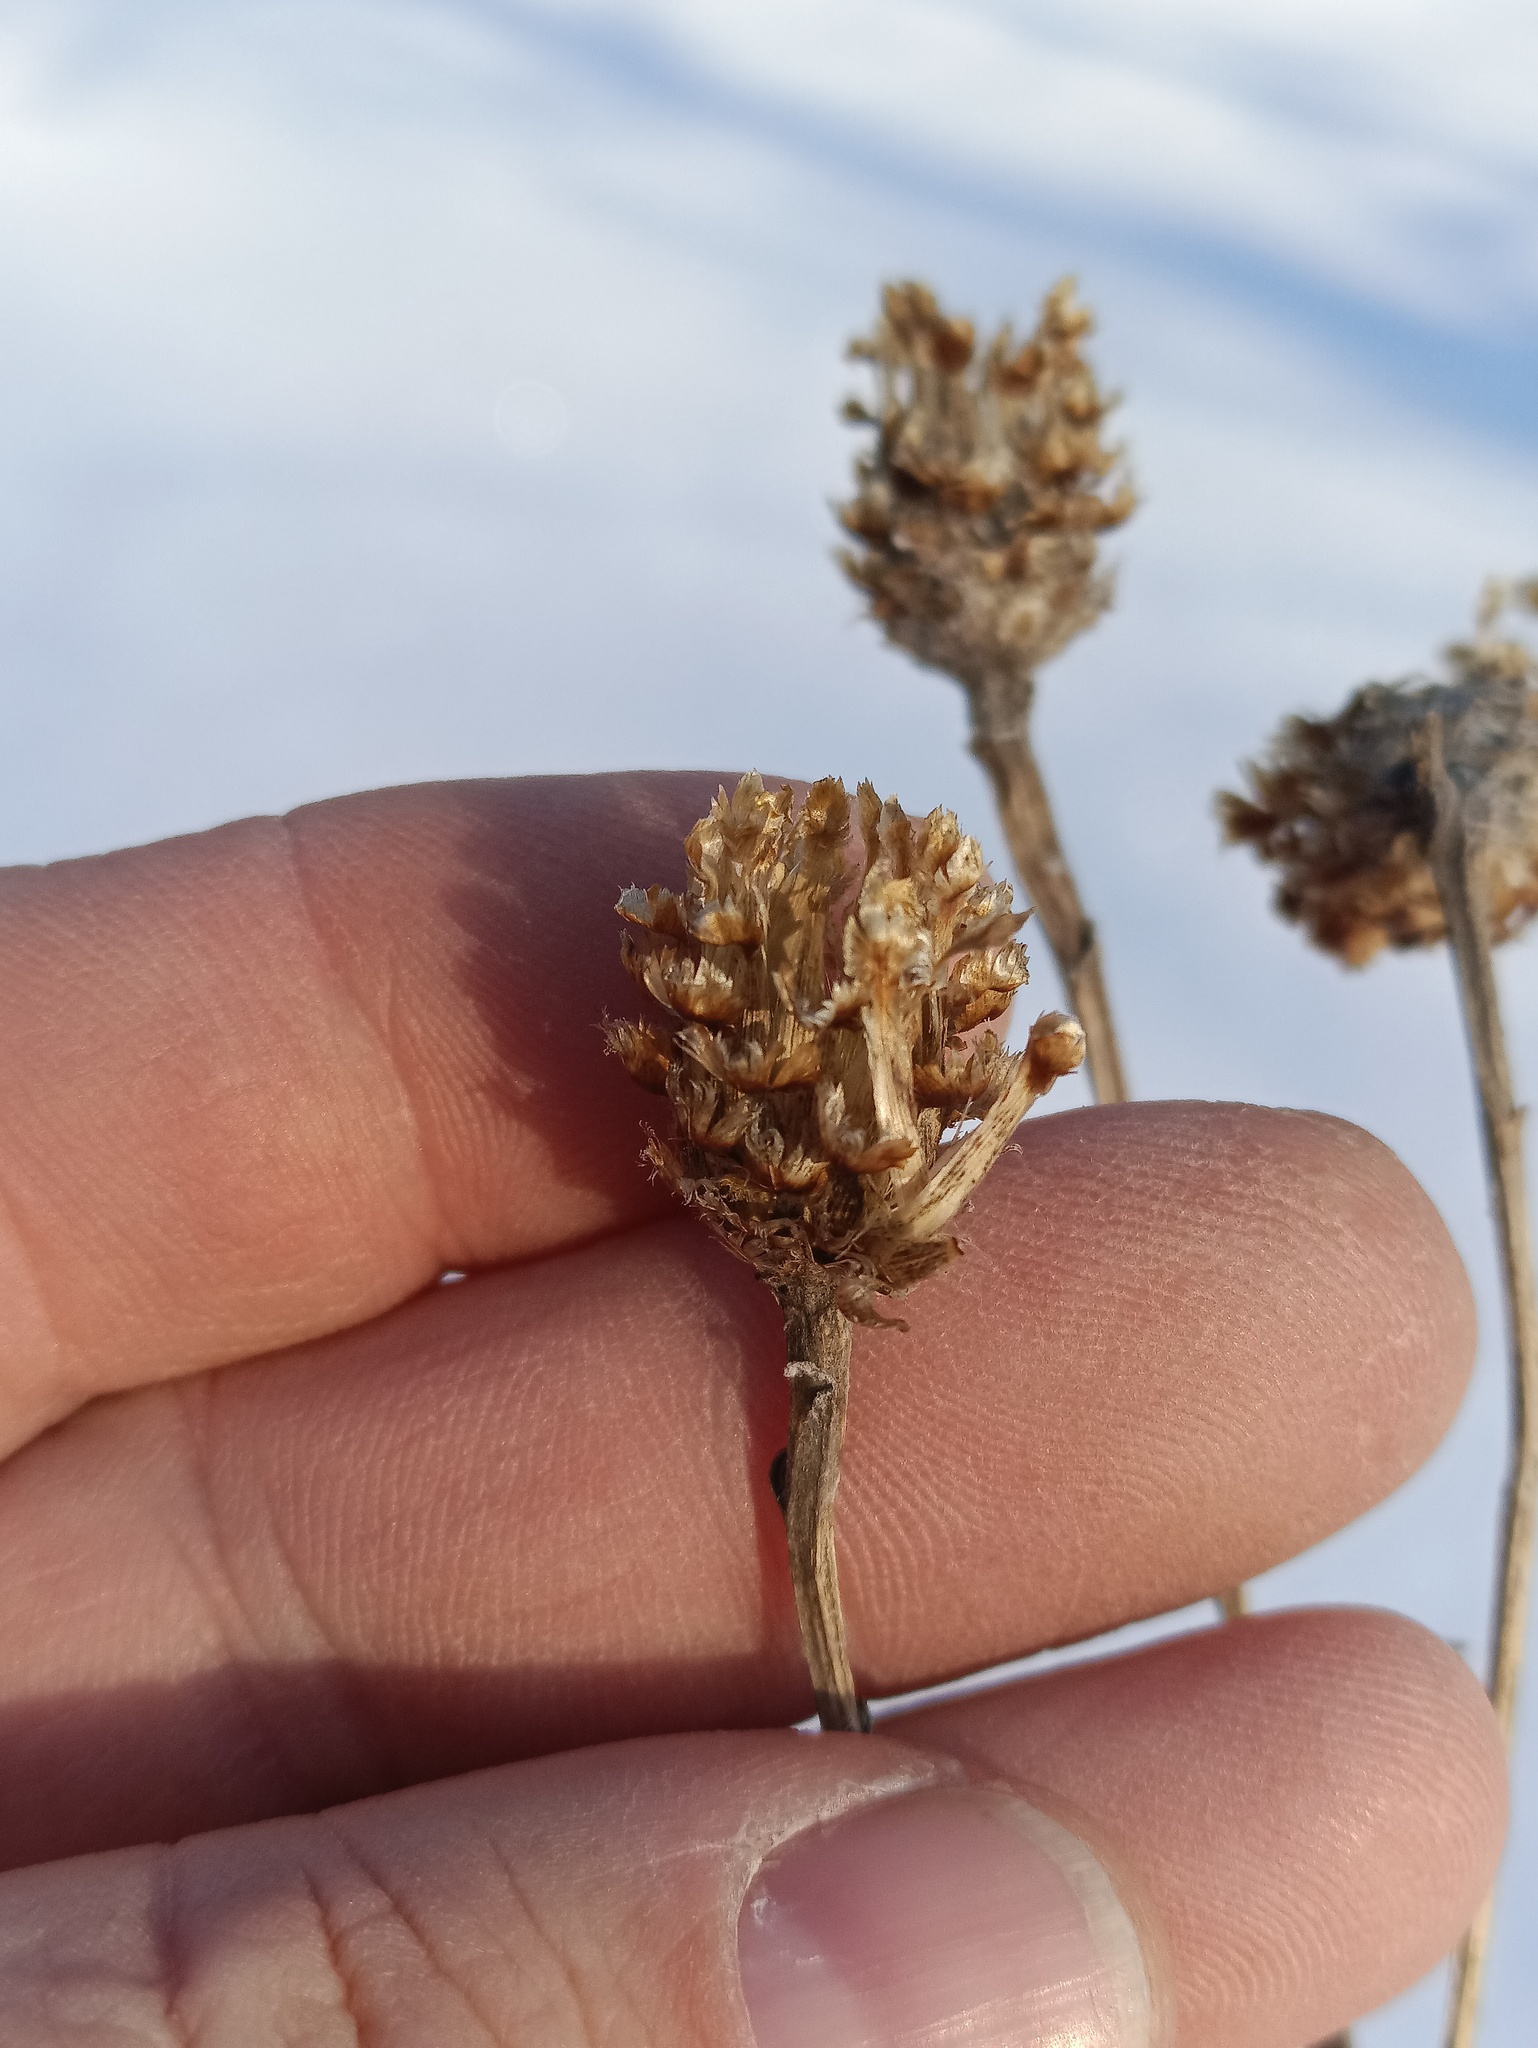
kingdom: Plantae
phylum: Tracheophyta
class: Magnoliopsida
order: Asterales
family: Asteraceae
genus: Centaurea
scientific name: Centaurea jacea
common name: Brown knapweed
